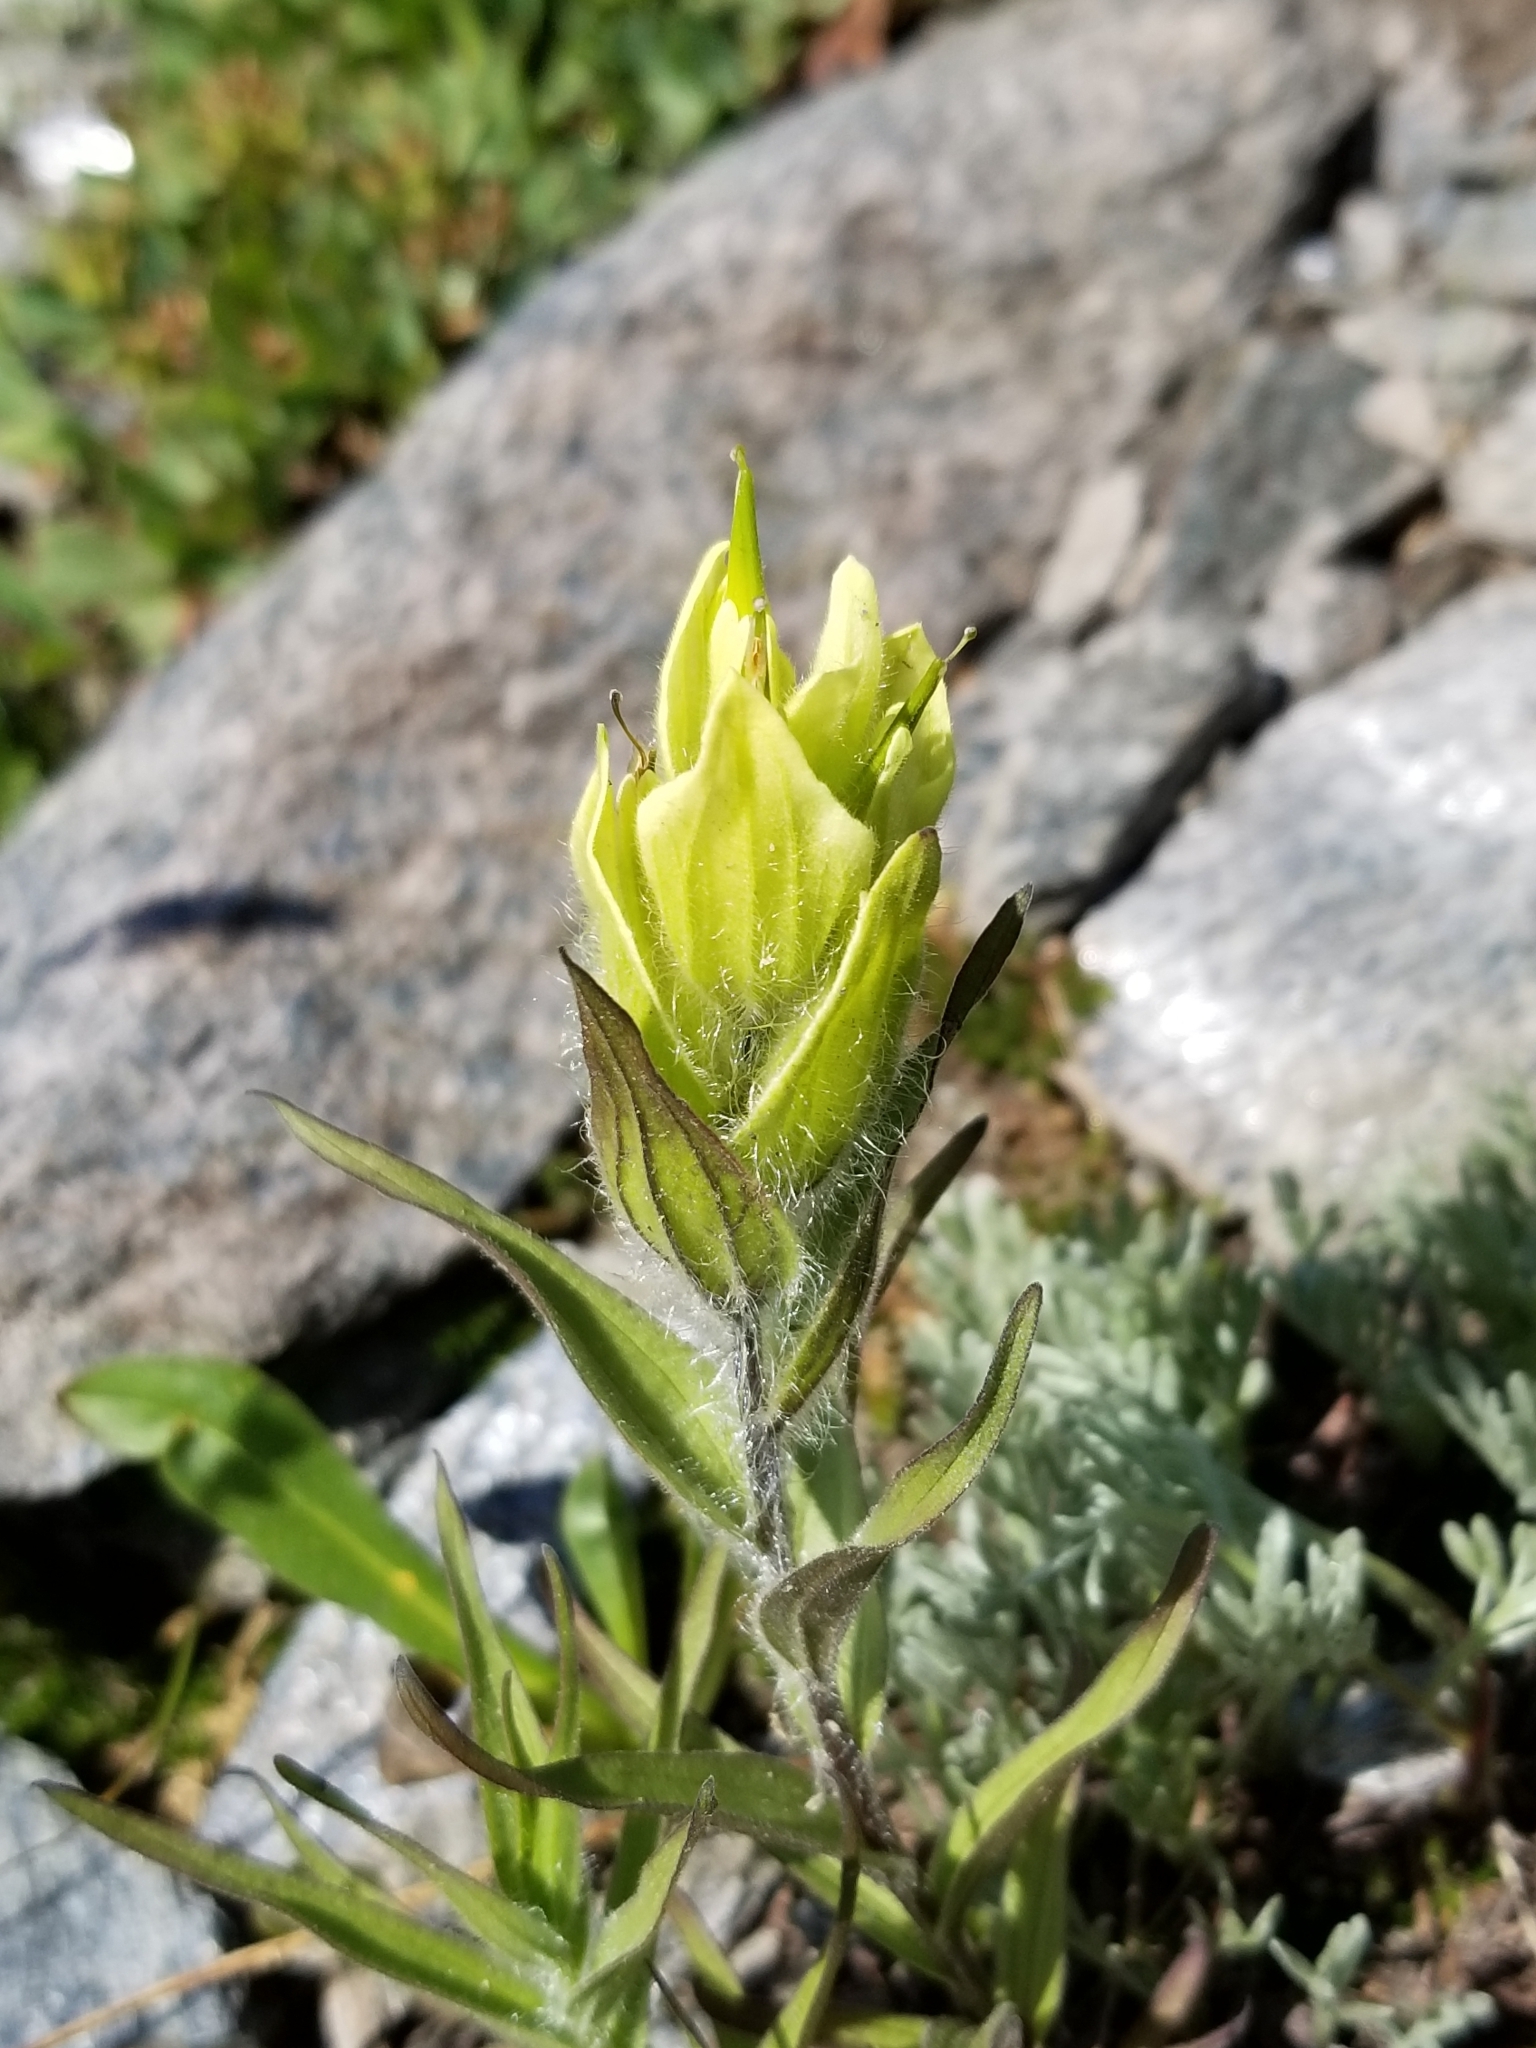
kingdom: Plantae
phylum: Tracheophyta
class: Magnoliopsida
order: Lamiales
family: Orobanchaceae
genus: Castilleja
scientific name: Castilleja occidentalis
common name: Western paintbrush
